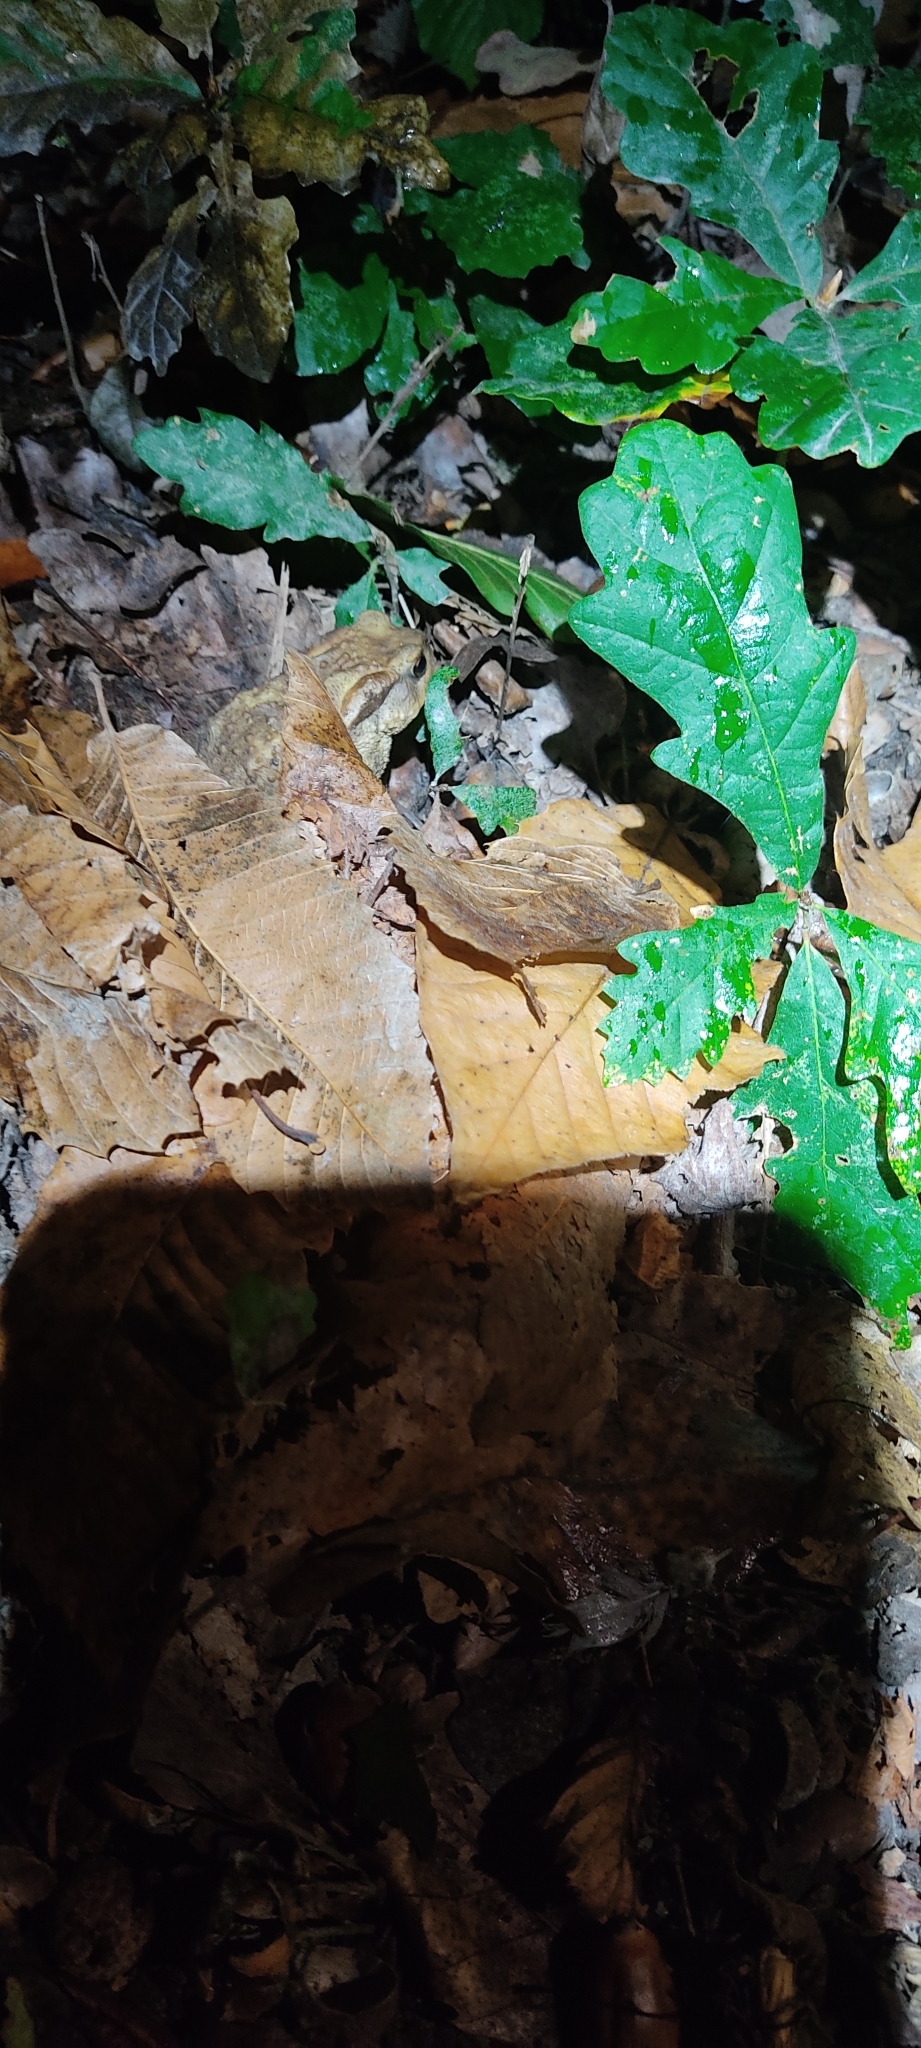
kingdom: Animalia
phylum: Chordata
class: Amphibia
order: Anura
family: Bufonidae
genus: Bufo
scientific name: Bufo spinosus
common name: Western common toad
